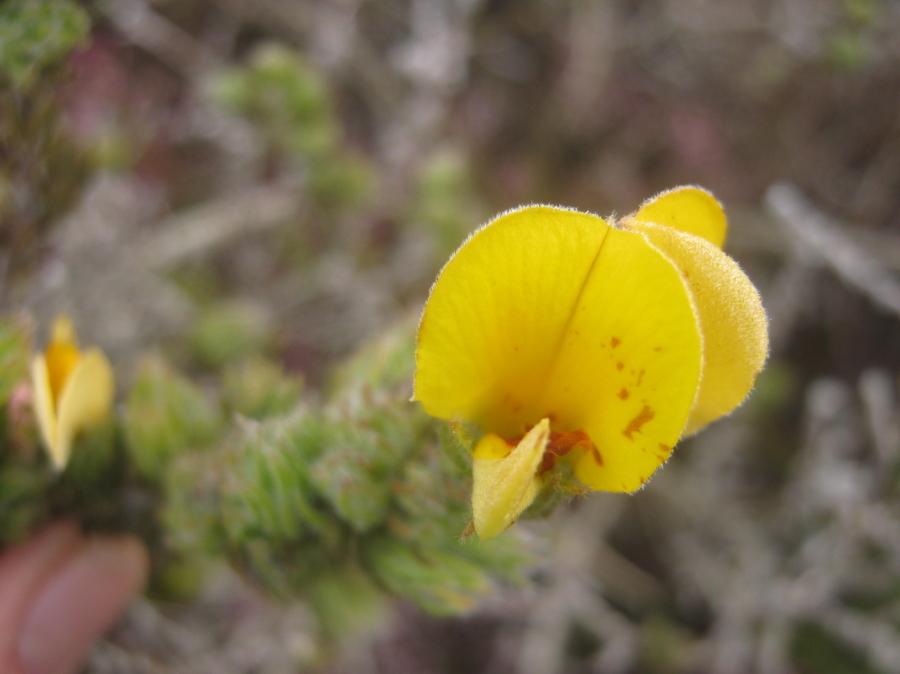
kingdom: Plantae
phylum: Tracheophyta
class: Magnoliopsida
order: Fabales
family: Fabaceae
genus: Aspalathus
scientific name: Aspalathus ciliaris
